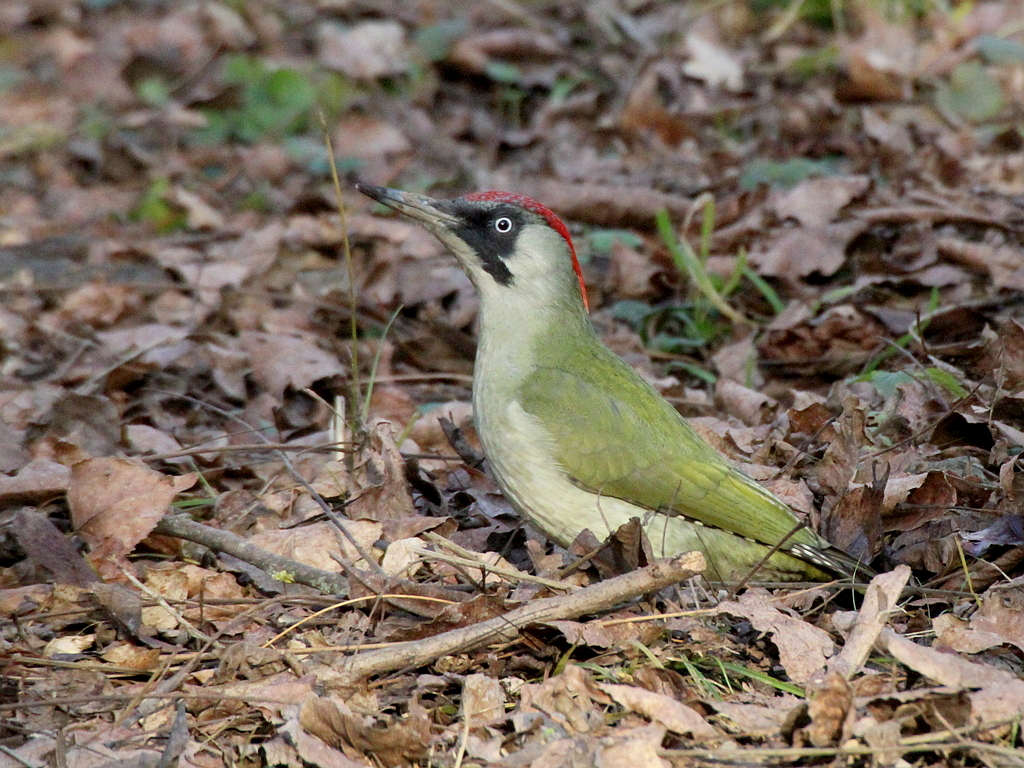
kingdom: Animalia
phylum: Chordata
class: Aves
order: Piciformes
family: Picidae
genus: Picus
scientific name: Picus viridis
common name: European green woodpecker
